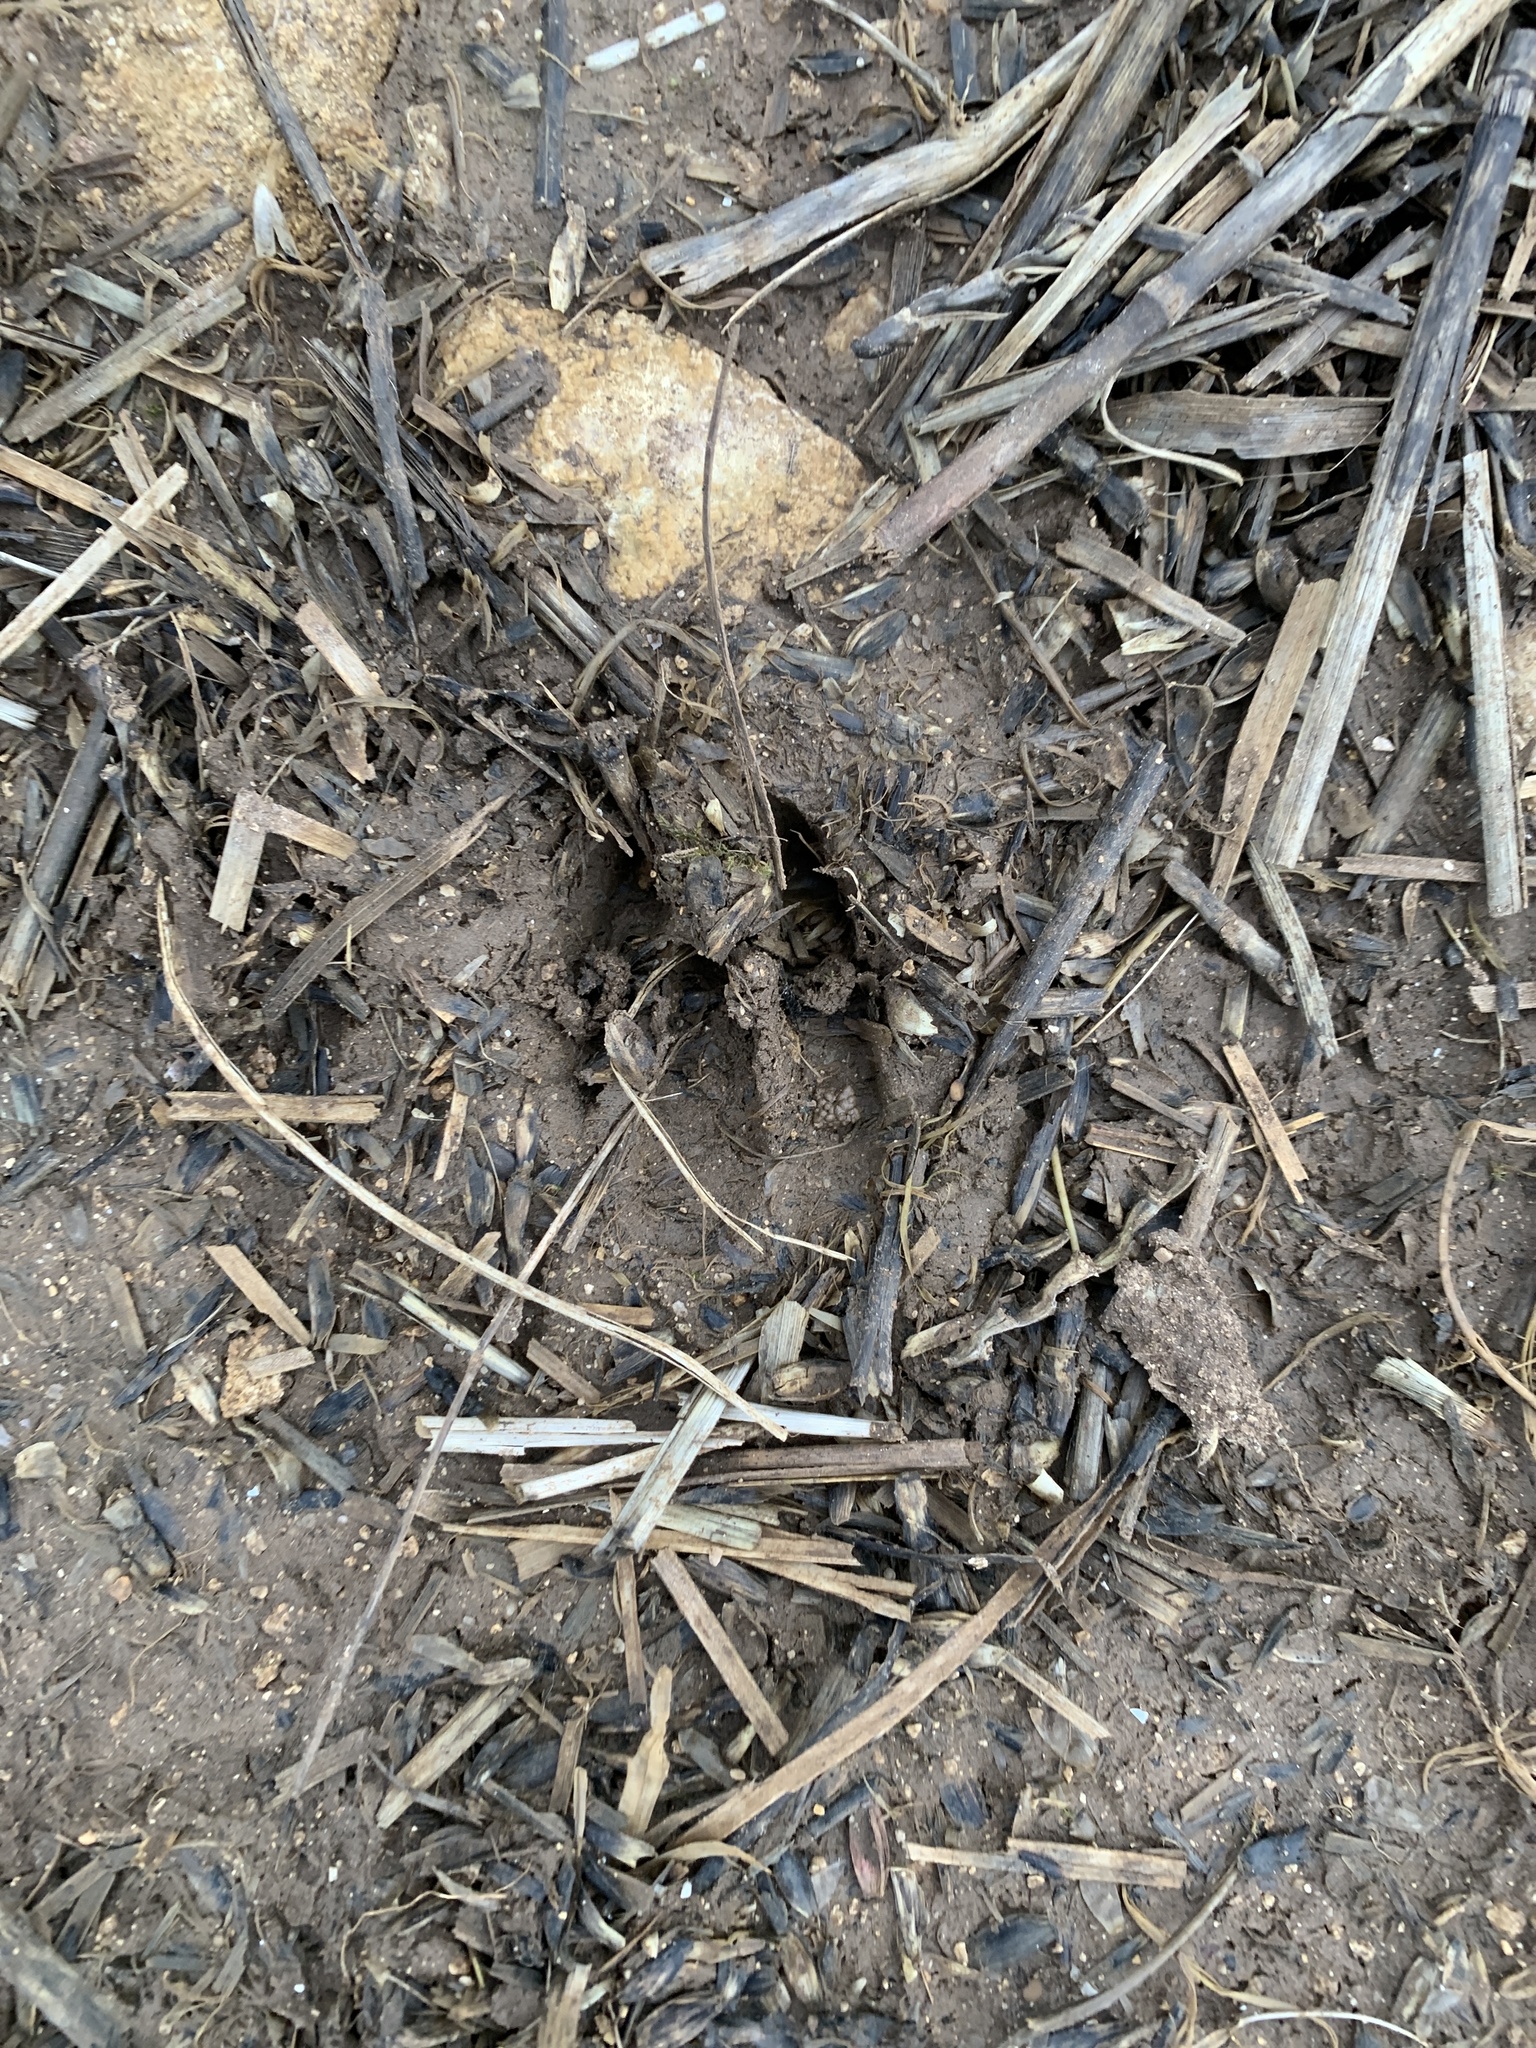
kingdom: Animalia
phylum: Chordata
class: Mammalia
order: Artiodactyla
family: Cervidae
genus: Muntiacus
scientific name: Muntiacus reevesi
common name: Reeves' muntjac
